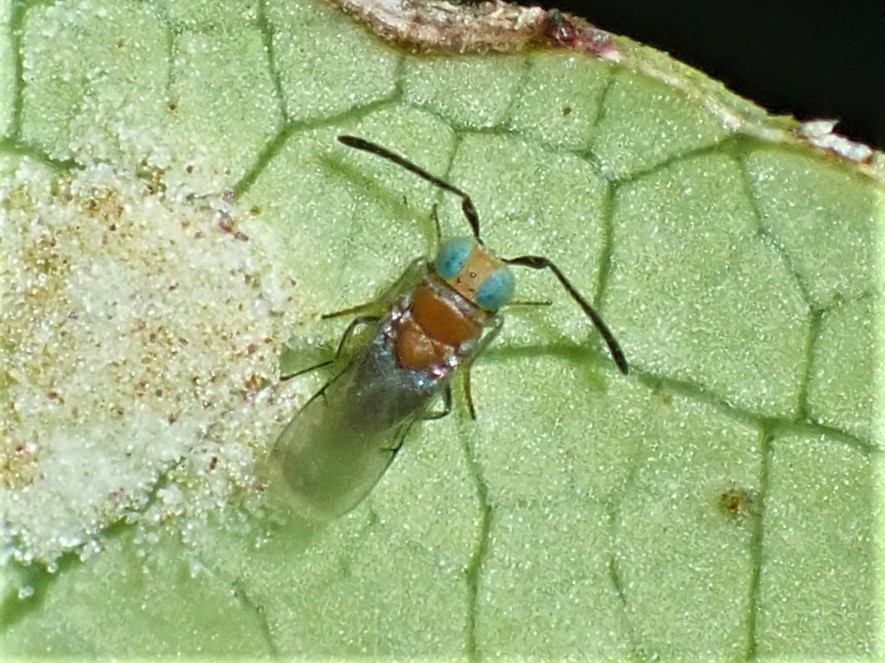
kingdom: Animalia
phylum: Arthropoda
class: Insecta
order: Hymenoptera
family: Encyrtidae
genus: Anagyrus
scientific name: Anagyrus fusciventris
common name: Encyrtid parasitoid wasp
